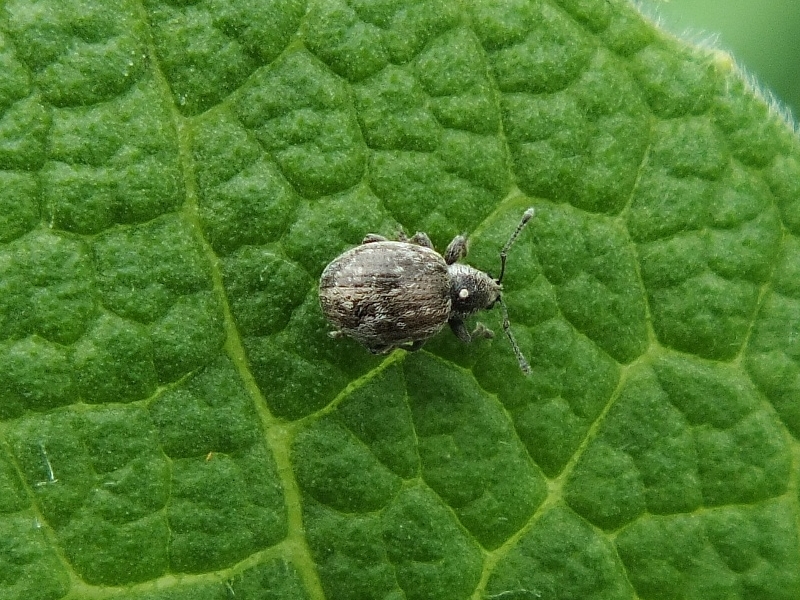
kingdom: Animalia
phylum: Arthropoda
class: Insecta
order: Coleoptera
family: Curculionidae
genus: Omias
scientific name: Omias verruca
